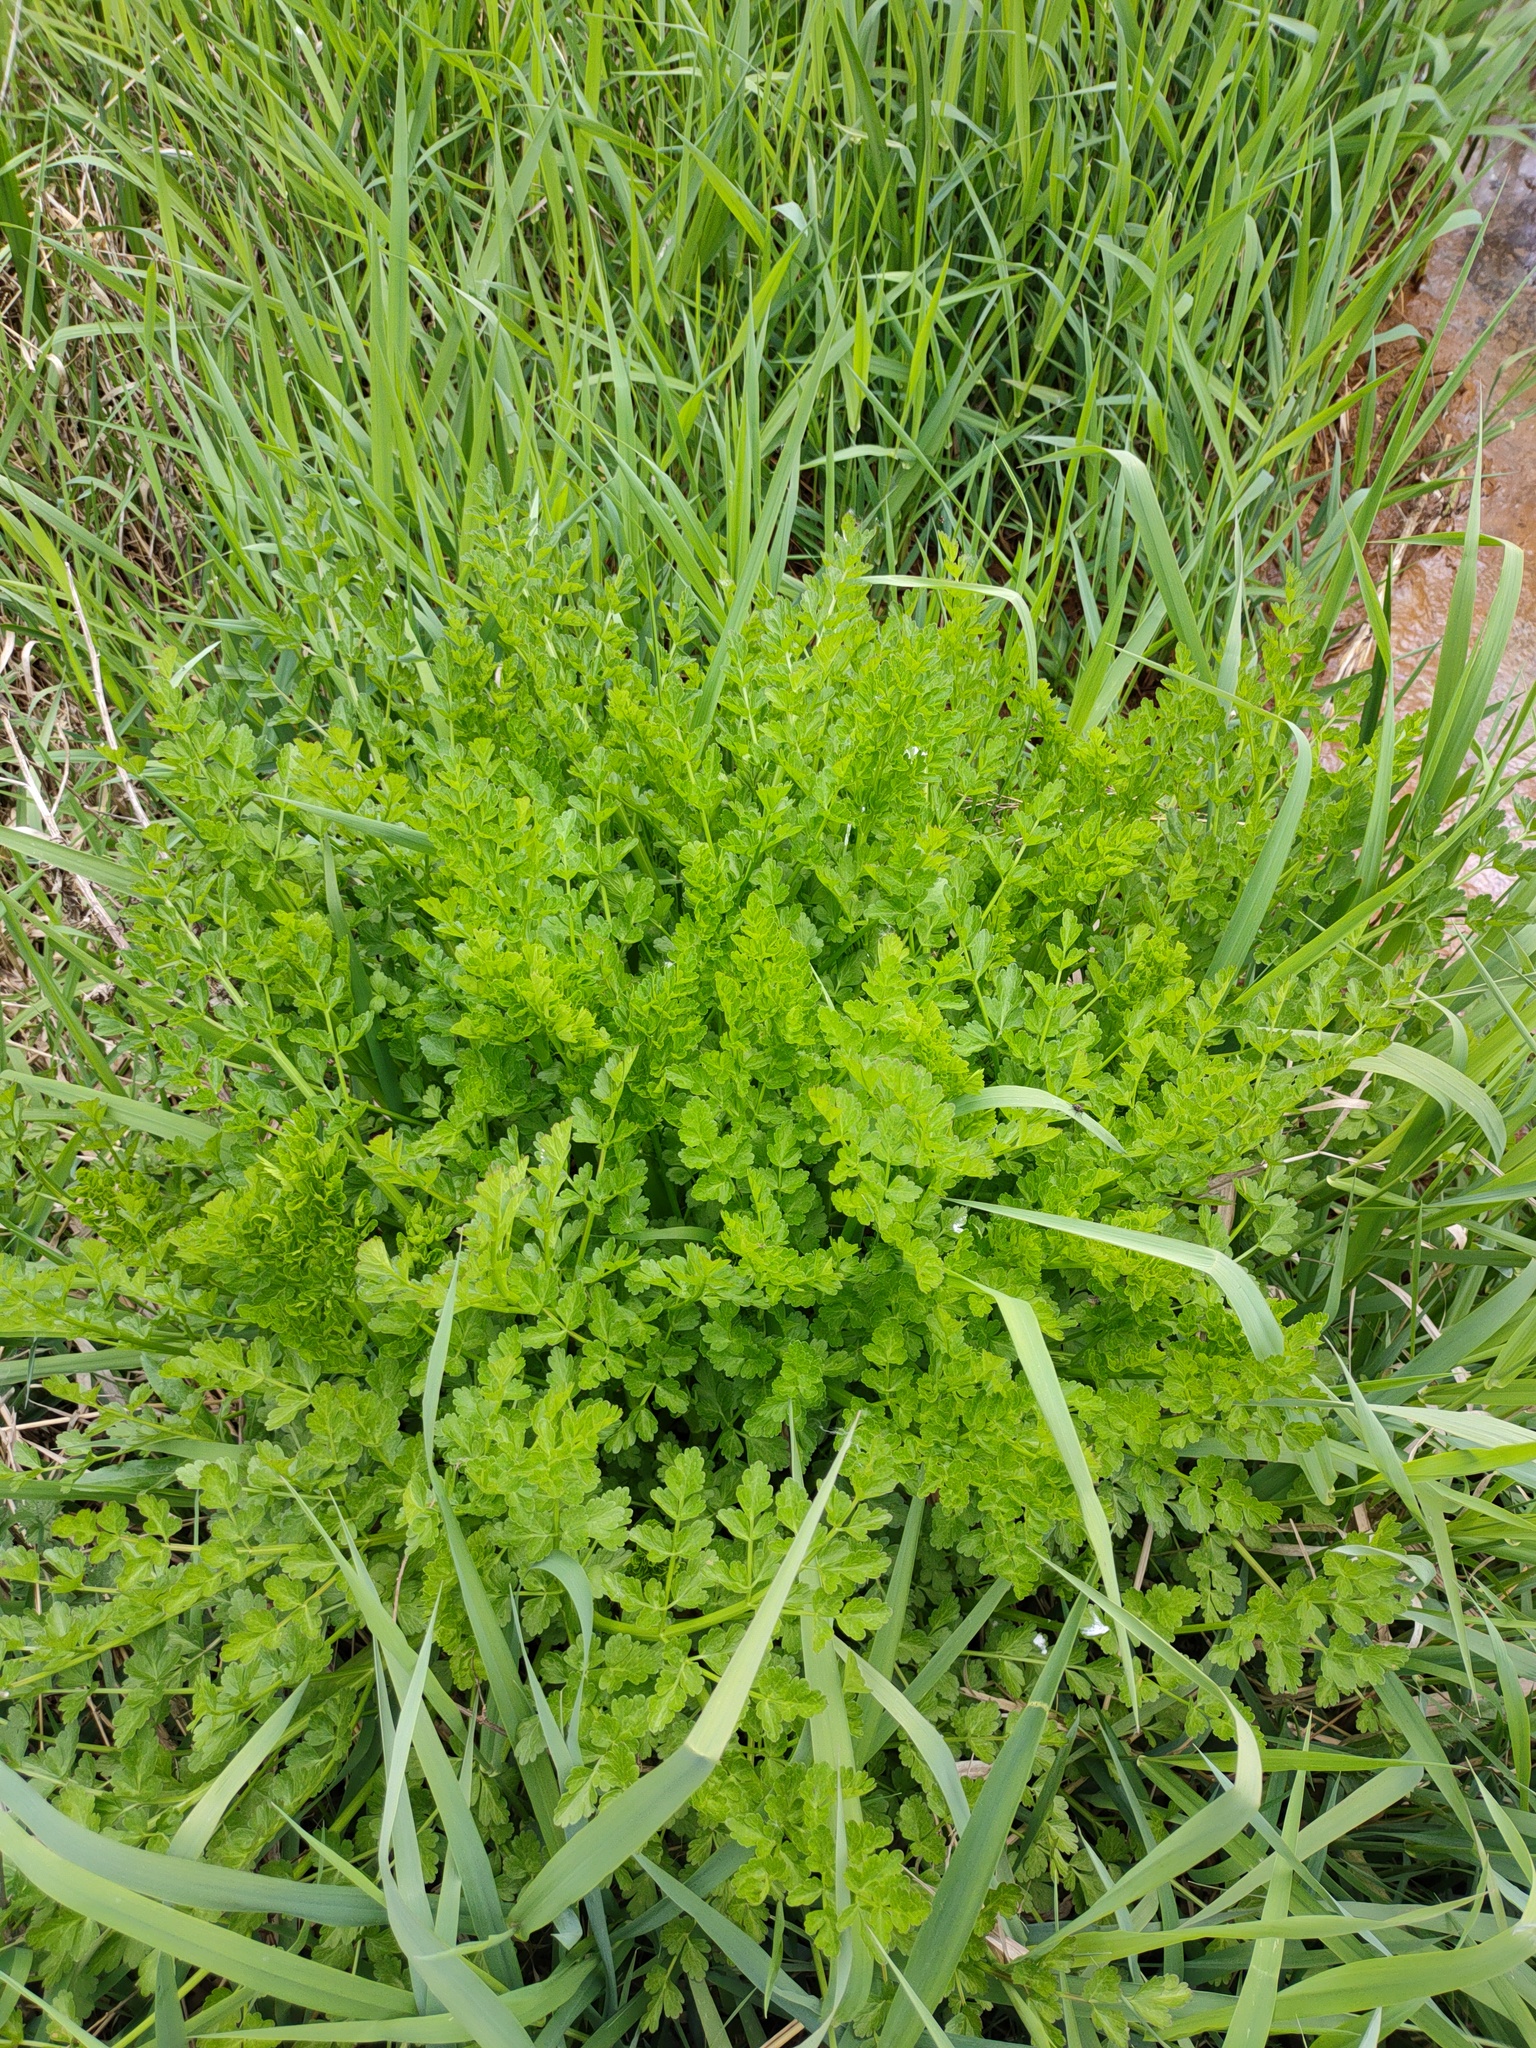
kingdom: Plantae
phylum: Tracheophyta
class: Magnoliopsida
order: Apiales
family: Apiaceae
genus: Oenanthe
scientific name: Oenanthe crocata
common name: Hemlock water-dropwort
